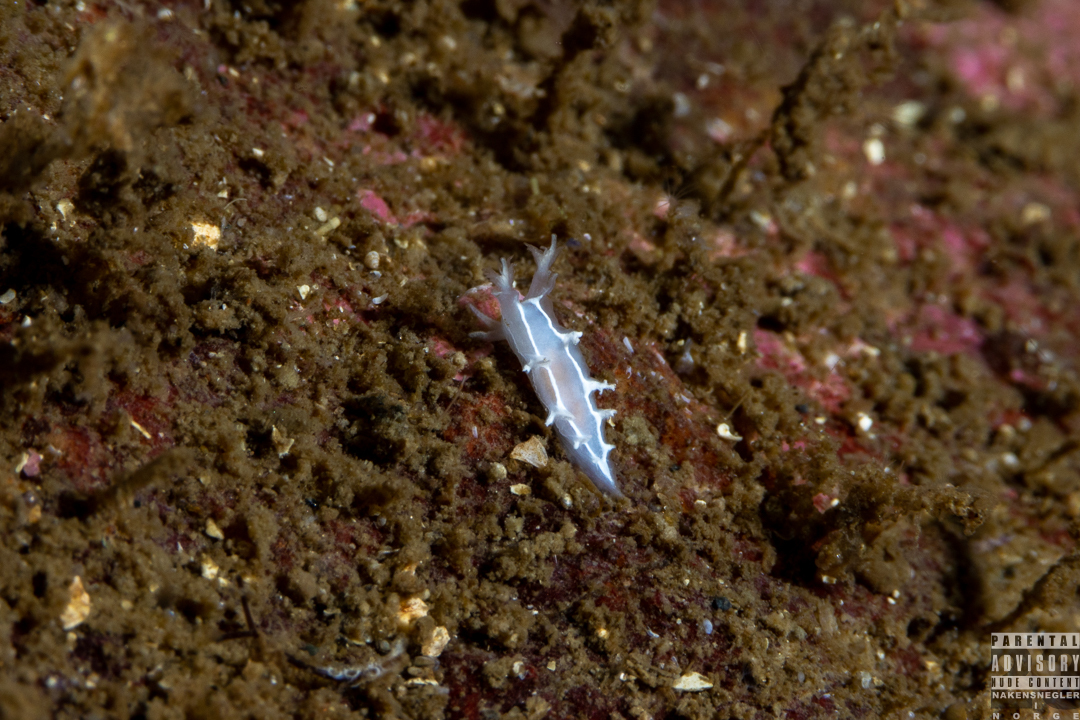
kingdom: Animalia
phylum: Mollusca
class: Gastropoda
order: Nudibranchia
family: Tritoniidae
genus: Duvaucelia
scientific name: Duvaucelia lineata
